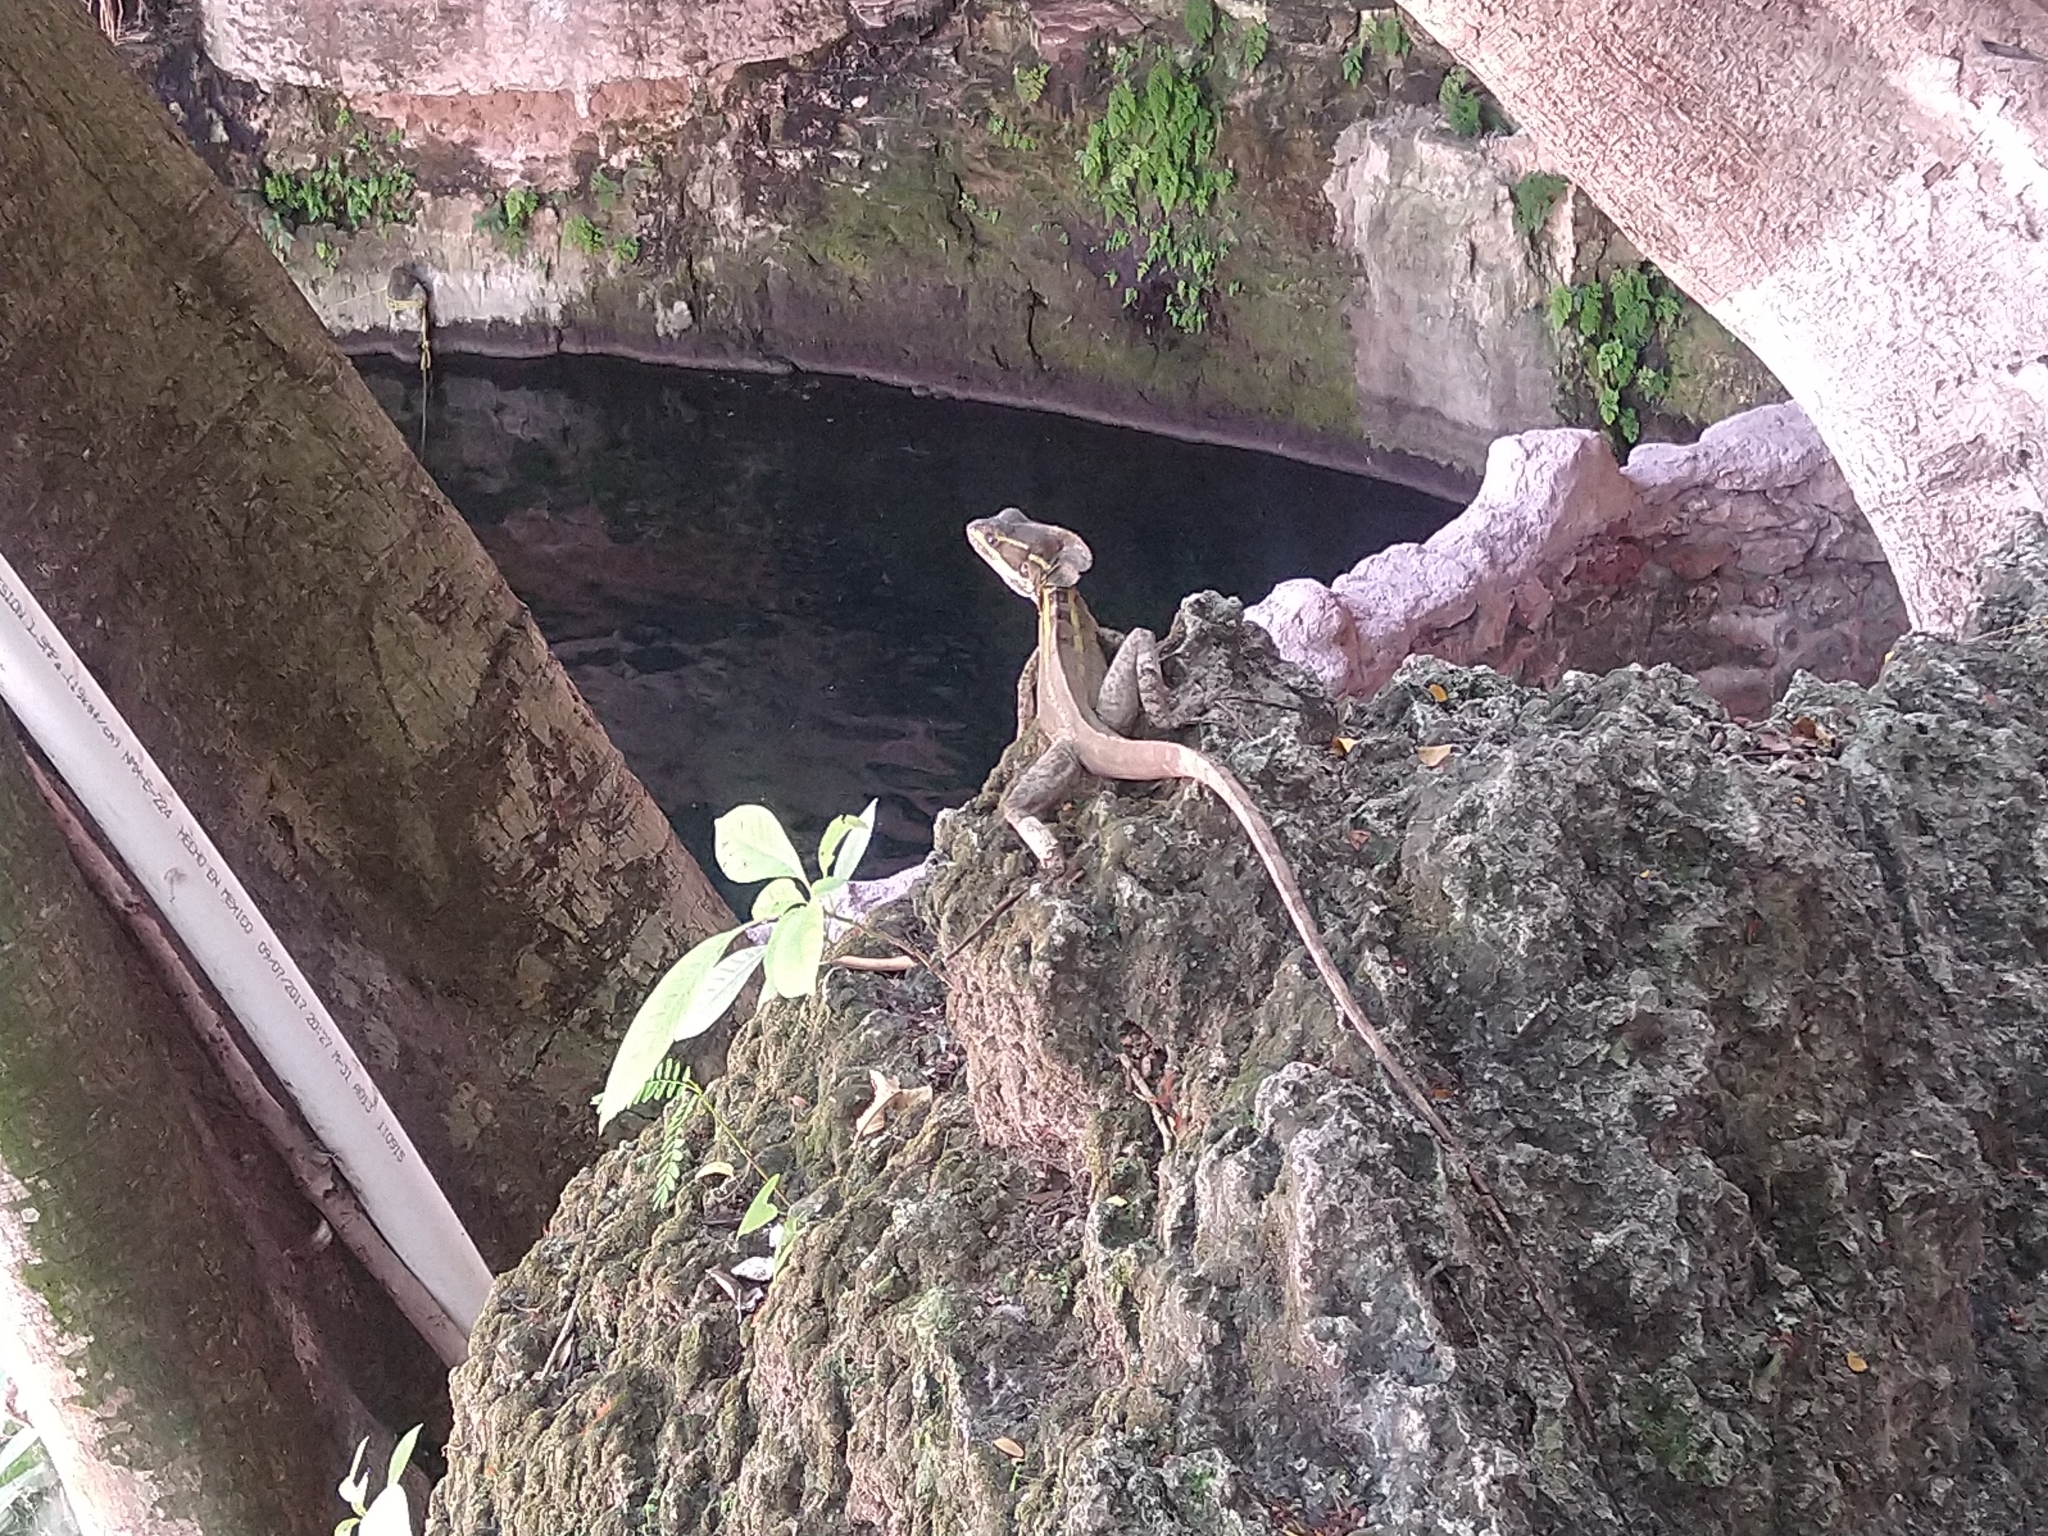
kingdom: Animalia
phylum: Chordata
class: Squamata
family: Corytophanidae
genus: Basiliscus
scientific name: Basiliscus vittatus
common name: Brown basilisk
